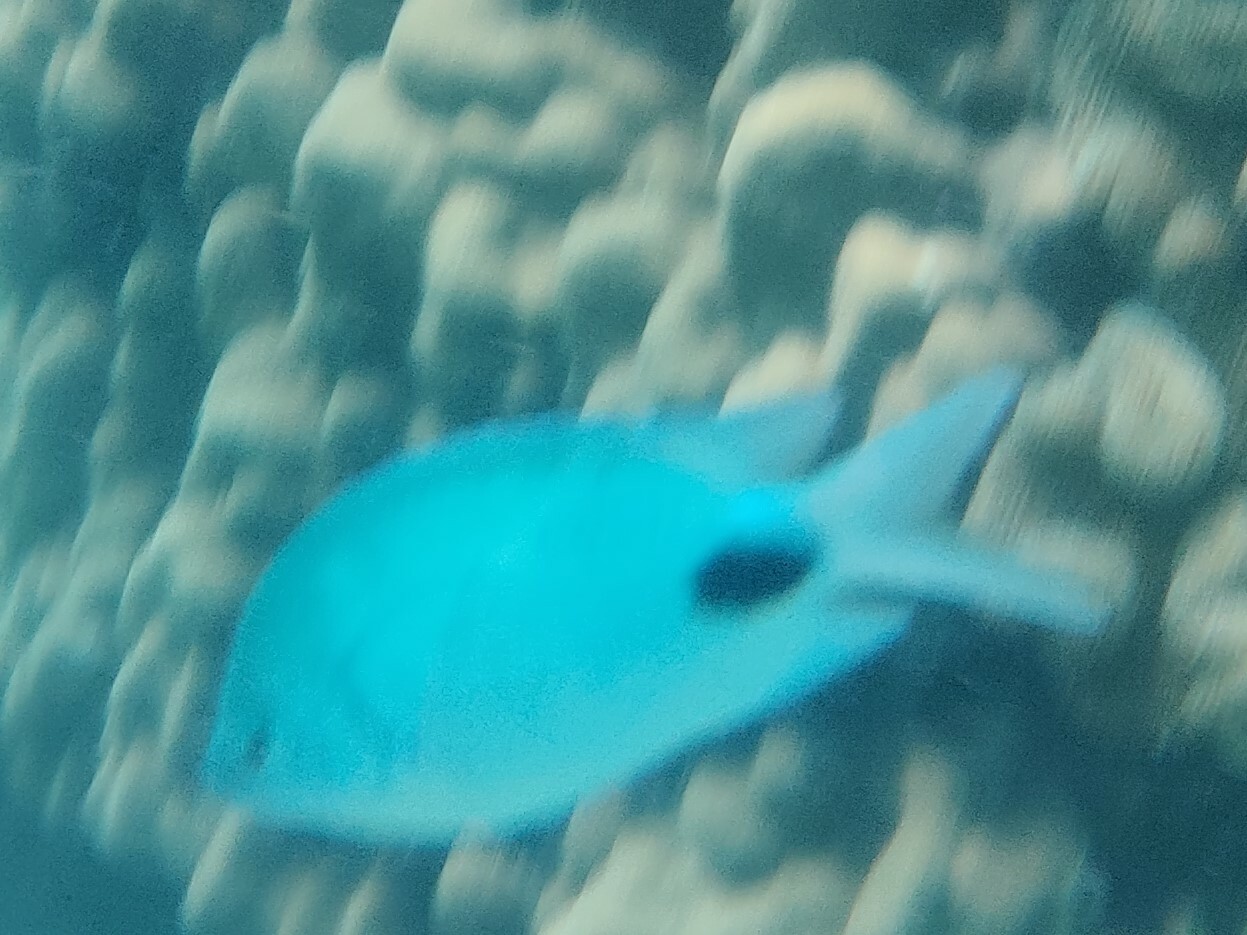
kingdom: Animalia
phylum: Chordata
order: Perciformes
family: Pomacentridae
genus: Abudefduf
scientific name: Abudefduf sparoides
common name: False-eye sergeant
